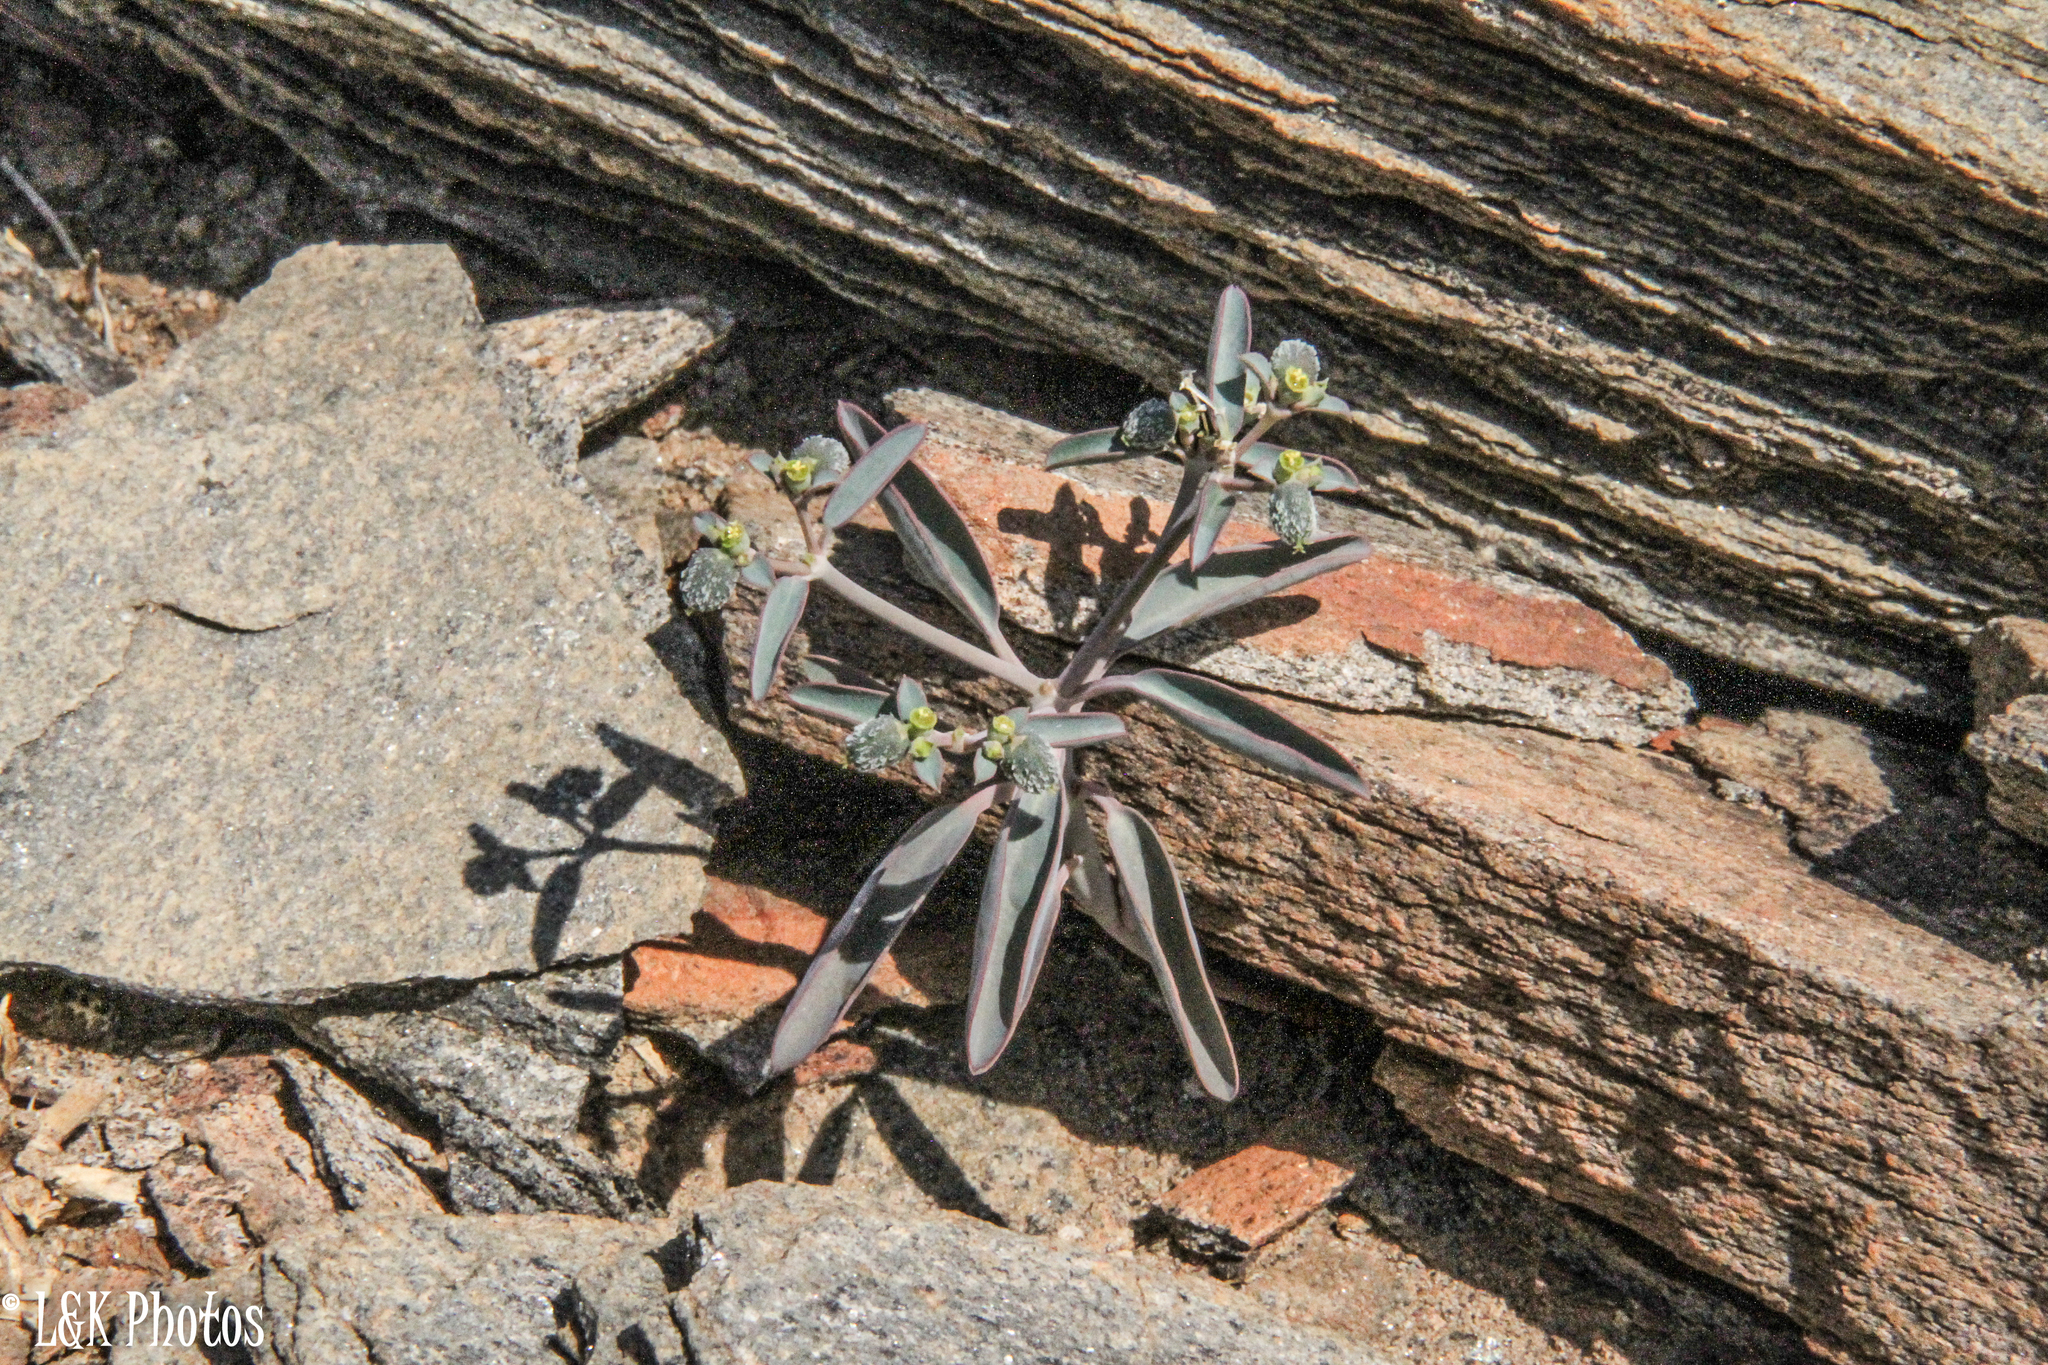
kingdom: Plantae
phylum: Tracheophyta
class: Magnoliopsida
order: Malpighiales
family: Euphorbiaceae
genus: Euphorbia
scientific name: Euphorbia glanduligera
